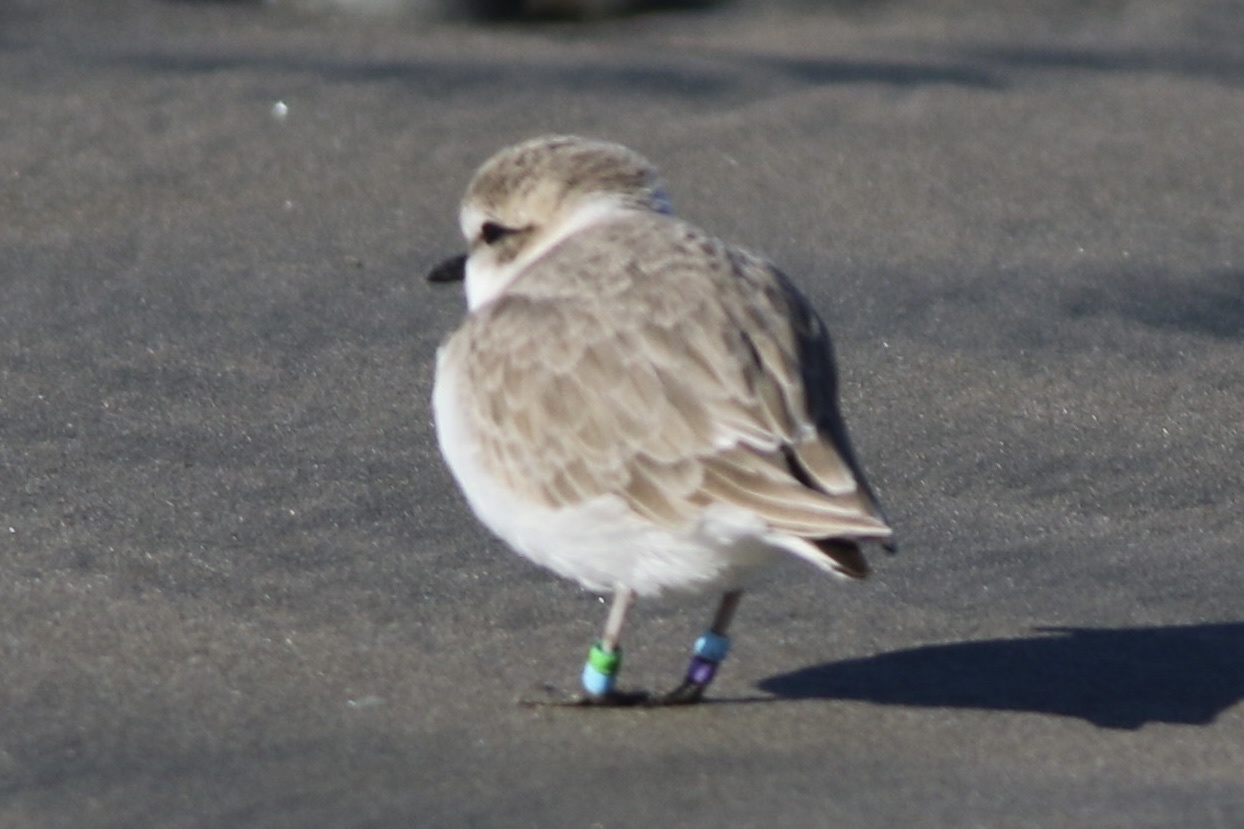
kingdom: Animalia
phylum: Chordata
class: Aves
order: Charadriiformes
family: Charadriidae
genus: Anarhynchus
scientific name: Anarhynchus
